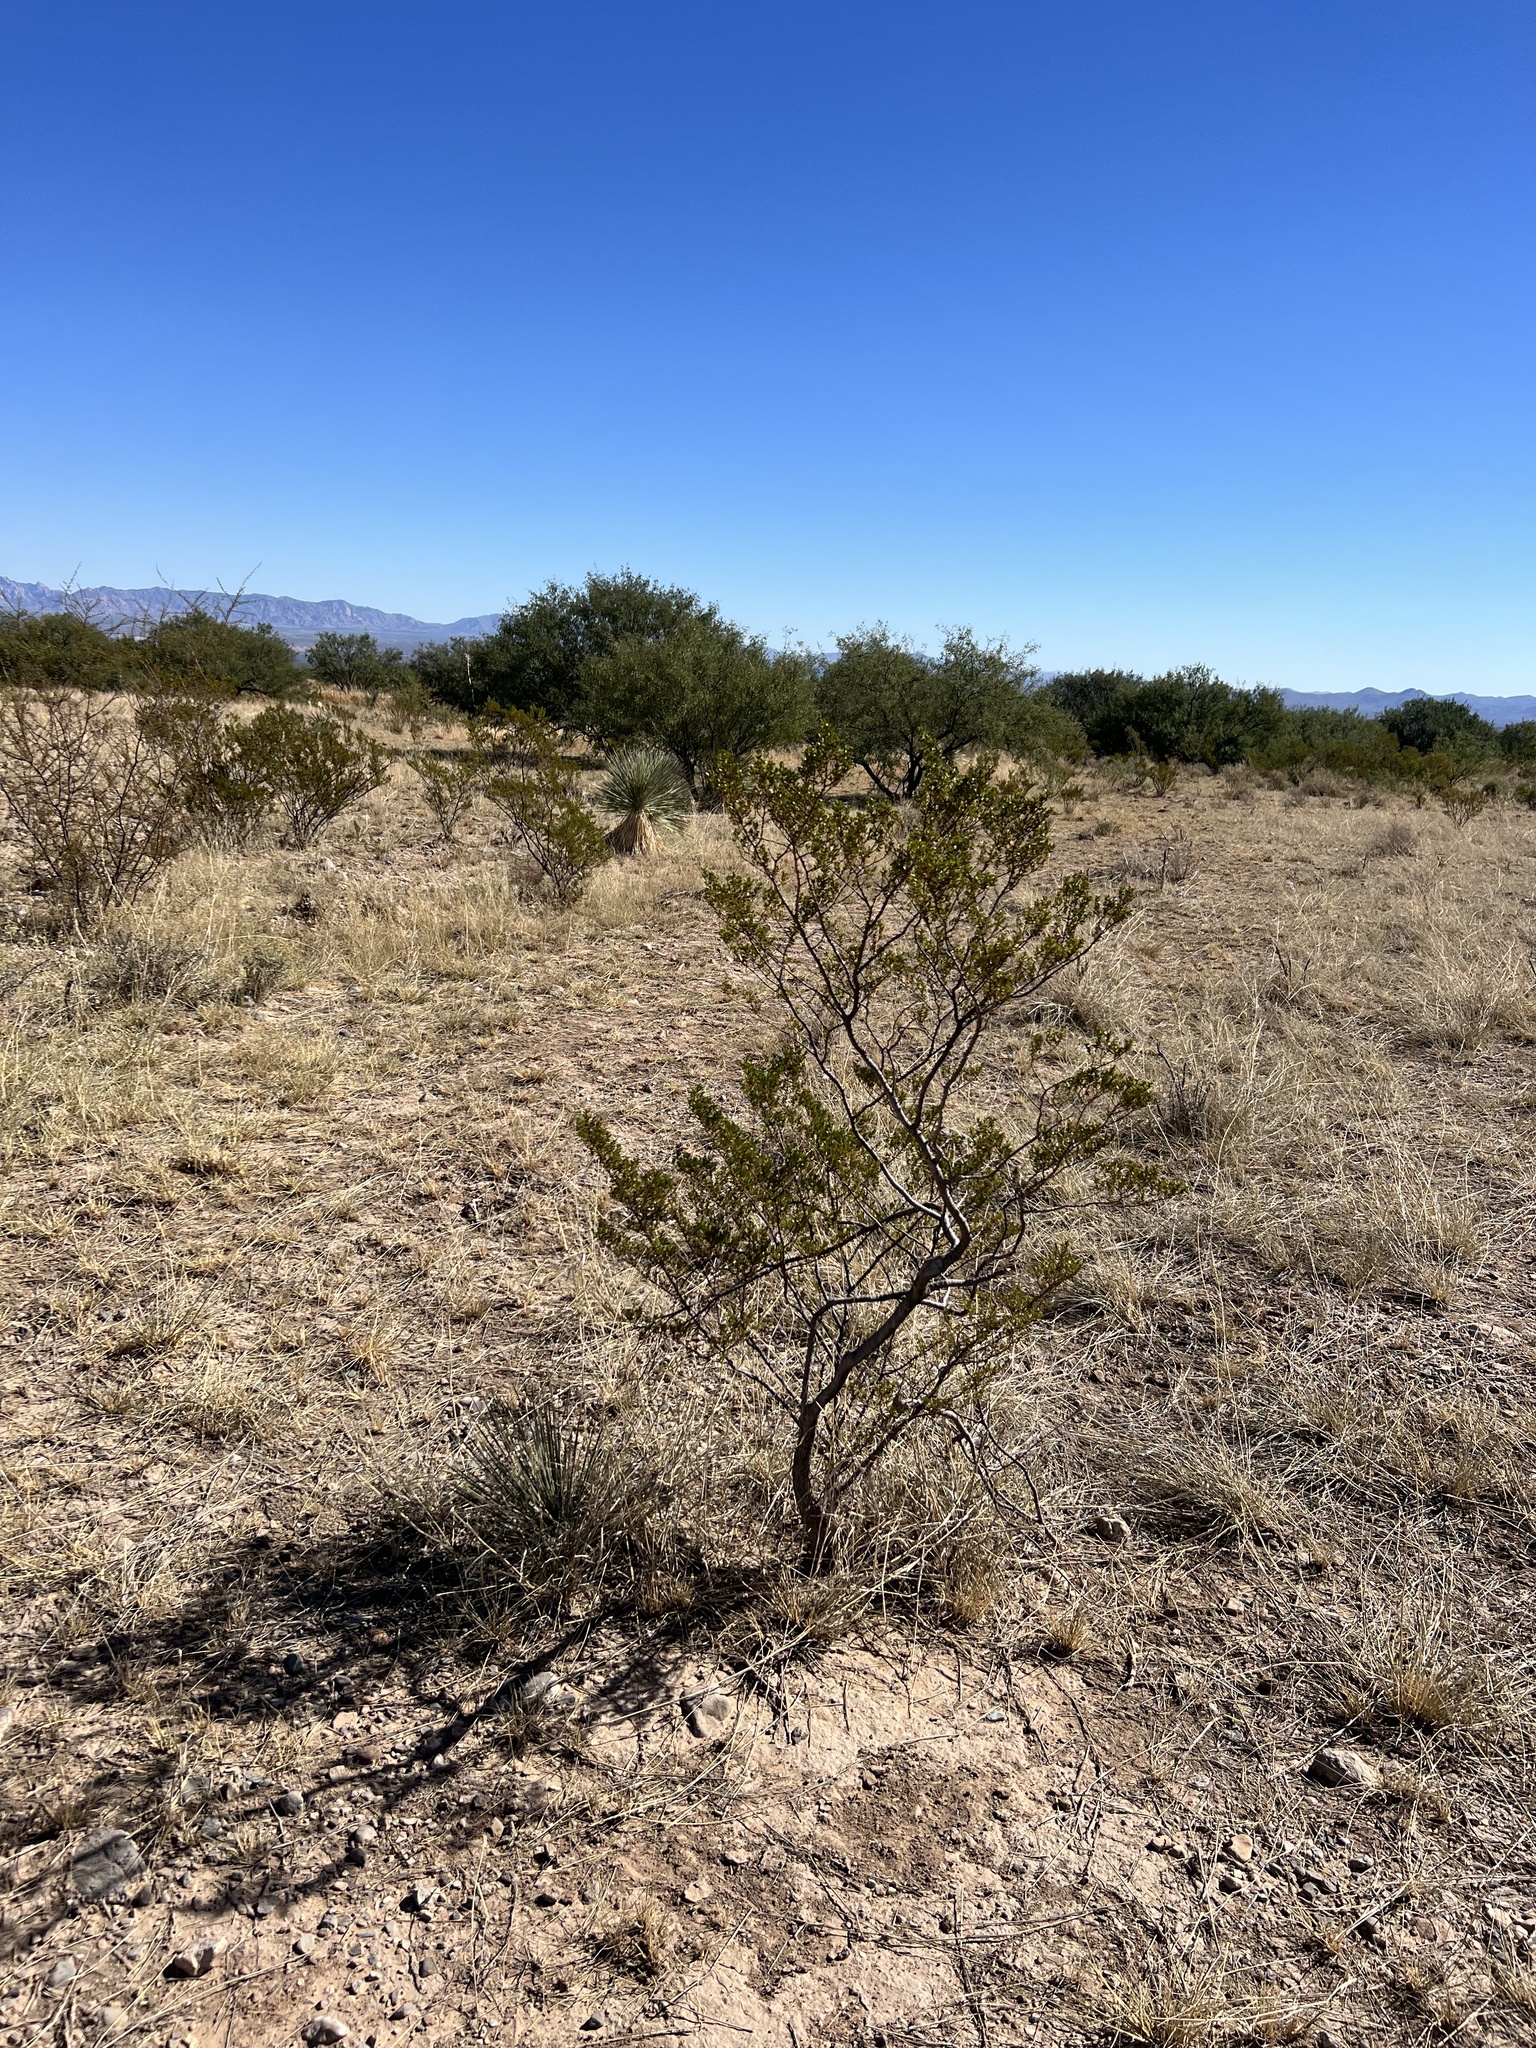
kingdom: Plantae
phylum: Tracheophyta
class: Magnoliopsida
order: Zygophyllales
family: Zygophyllaceae
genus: Larrea
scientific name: Larrea tridentata
